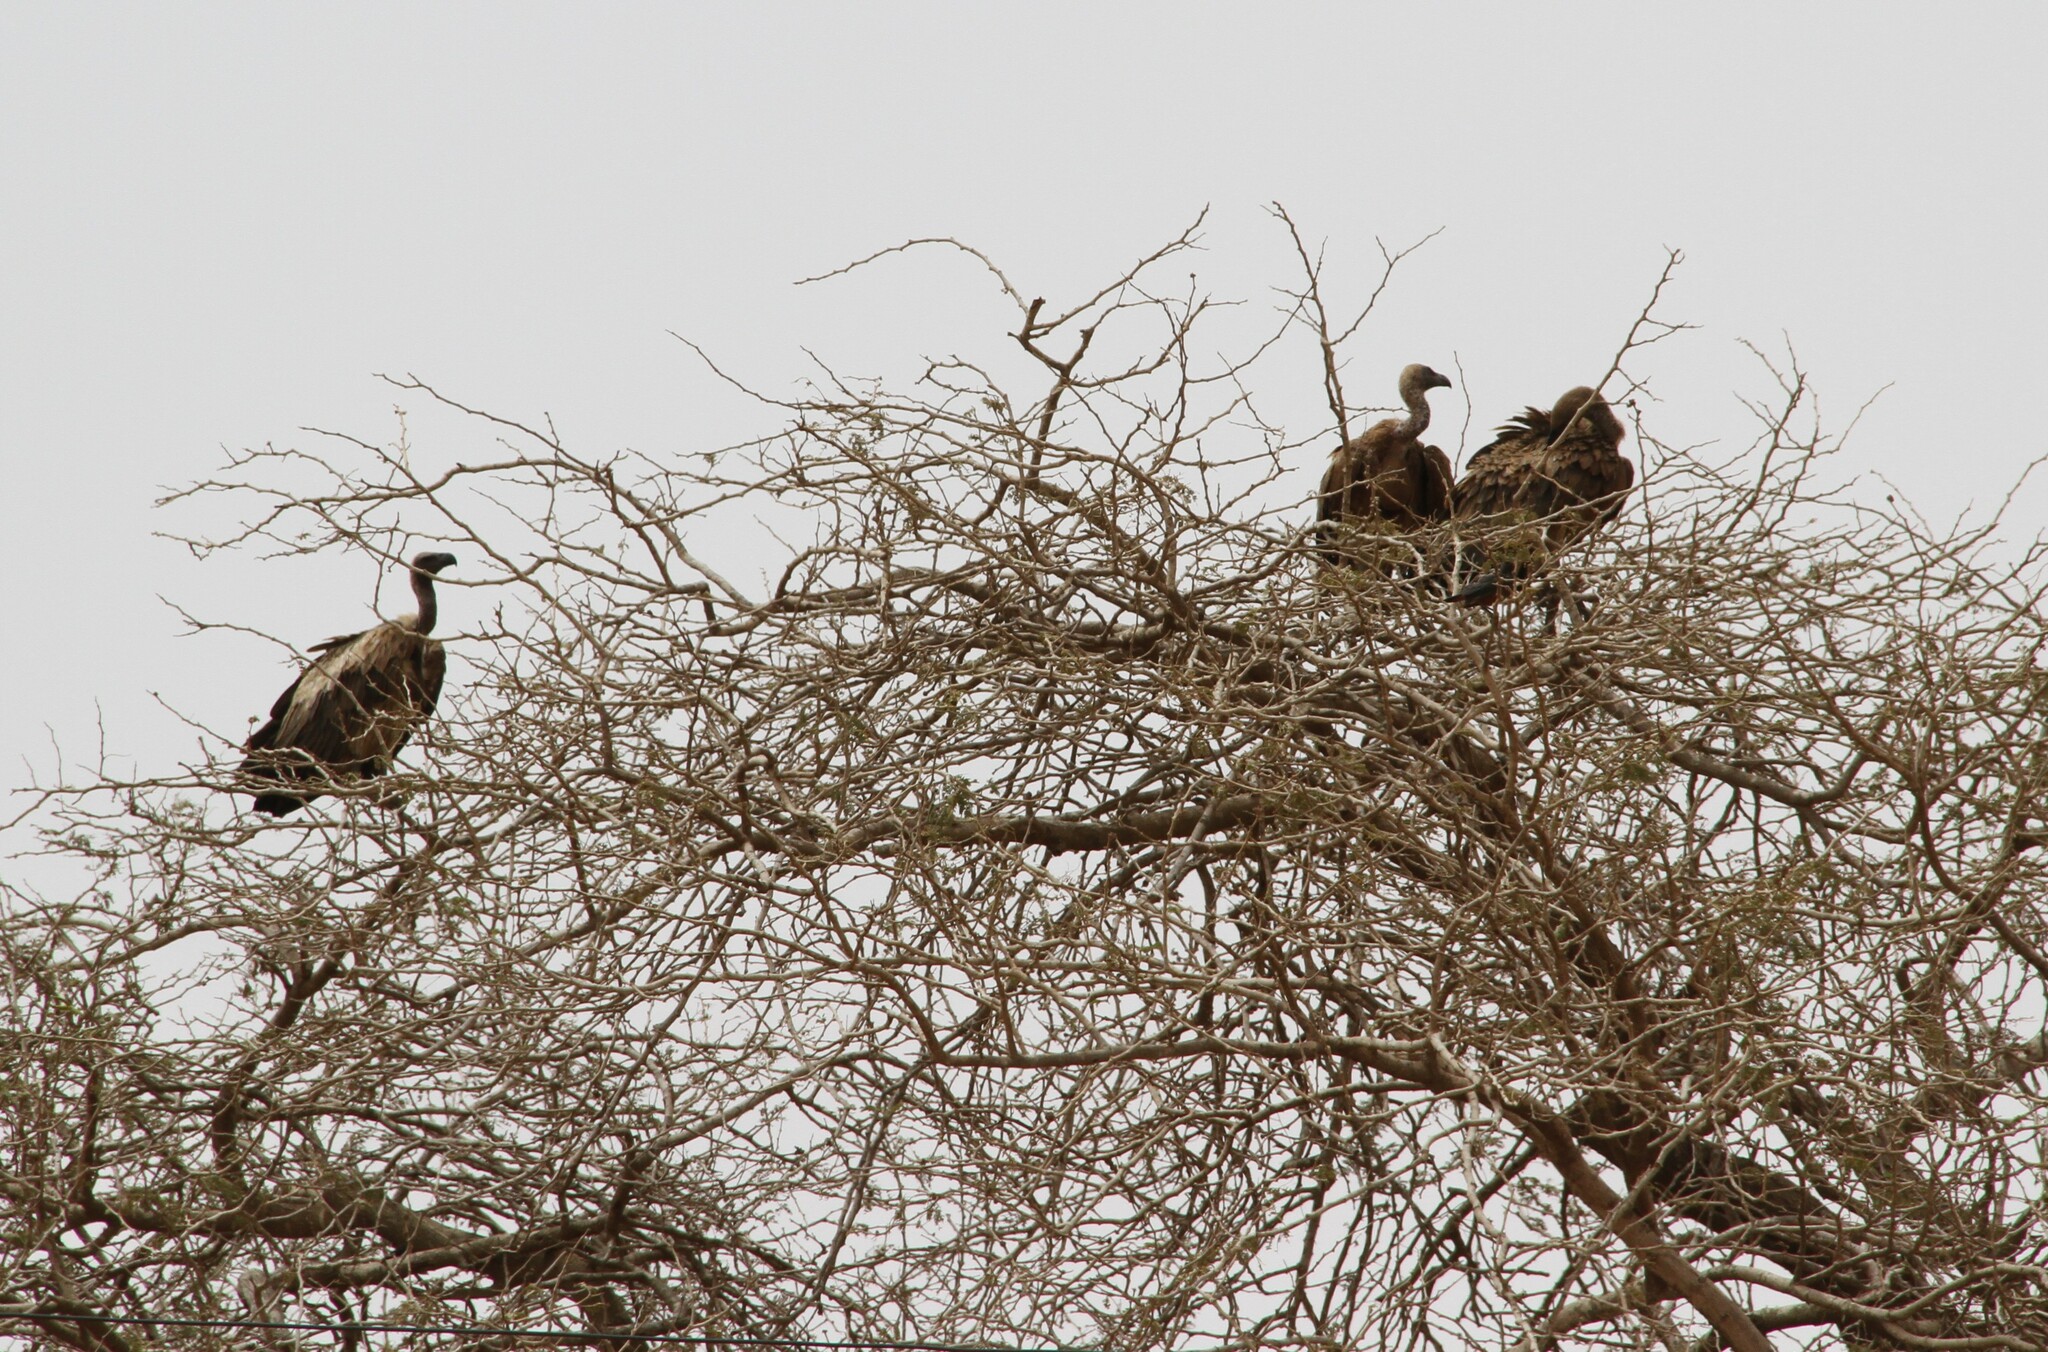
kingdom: Animalia
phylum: Chordata
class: Aves
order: Accipitriformes
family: Accipitridae
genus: Gyps
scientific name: Gyps africanus
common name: White-backed vulture
